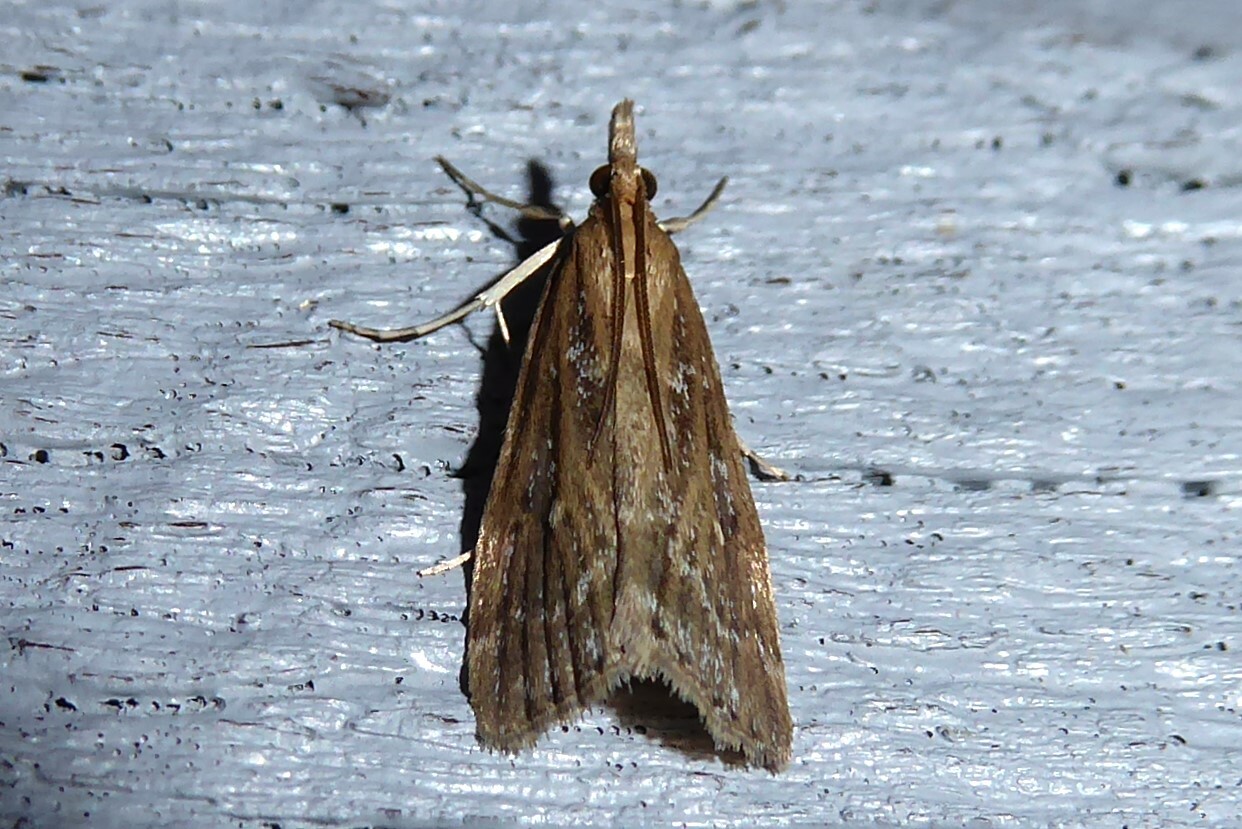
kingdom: Animalia
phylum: Arthropoda
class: Insecta
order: Lepidoptera
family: Crambidae
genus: Eudonia
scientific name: Eudonia octophora
